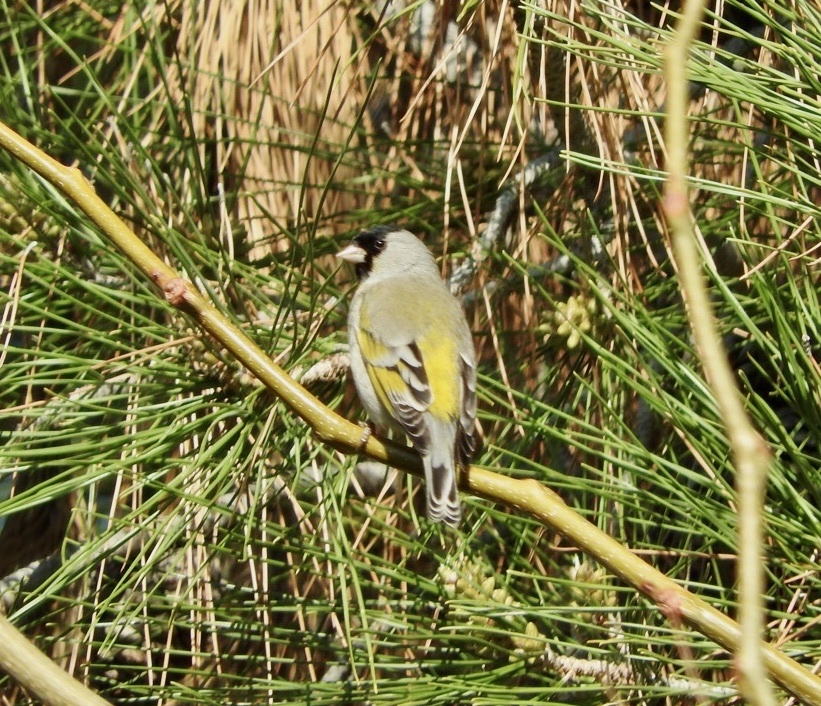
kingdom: Animalia
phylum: Chordata
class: Aves
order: Passeriformes
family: Fringillidae
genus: Spinus
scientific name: Spinus lawrencei
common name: Lawrence's goldfinch
